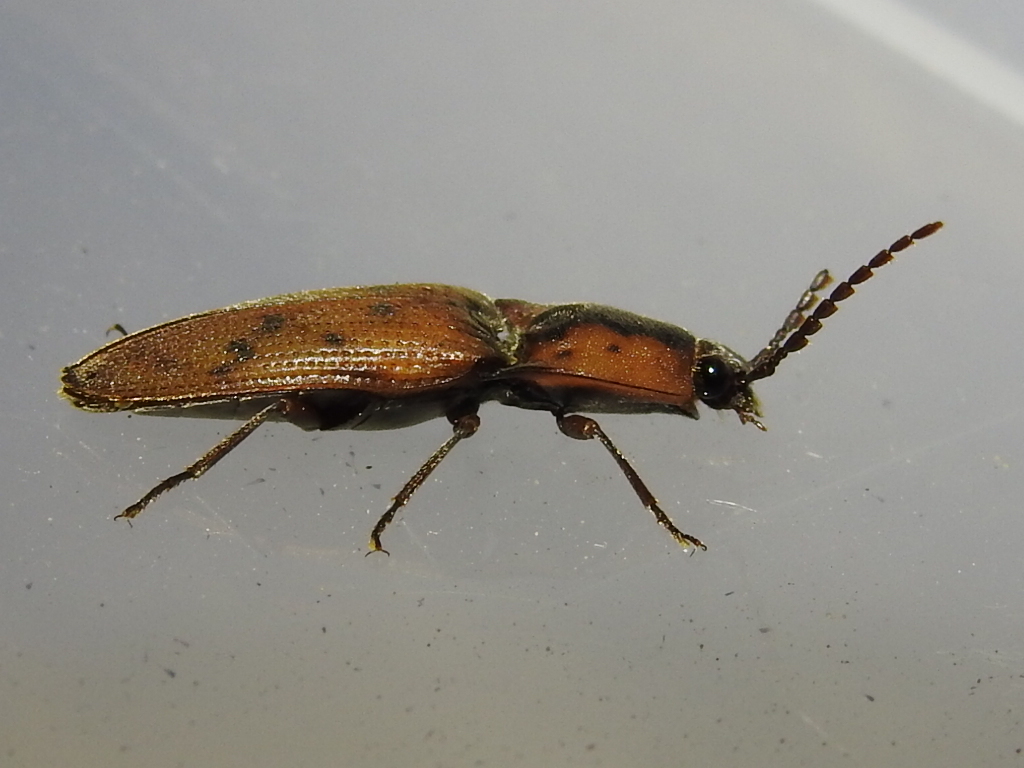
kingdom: Animalia
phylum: Arthropoda
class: Insecta
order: Coleoptera
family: Elateridae
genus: Monocrepidius
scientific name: Monocrepidius
